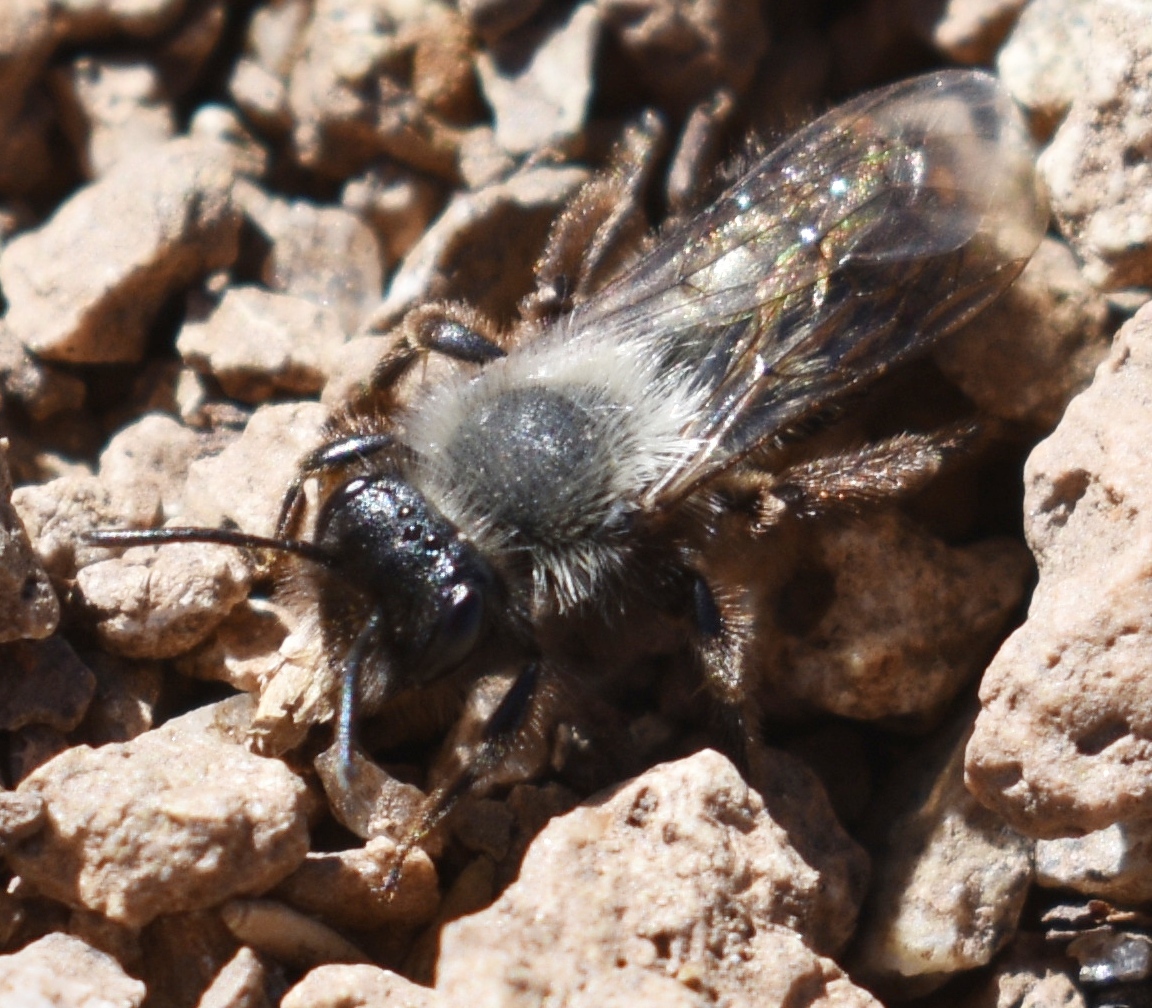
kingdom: Animalia
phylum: Arthropoda
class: Insecta
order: Hymenoptera
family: Andrenidae
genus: Andrena
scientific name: Andrena
